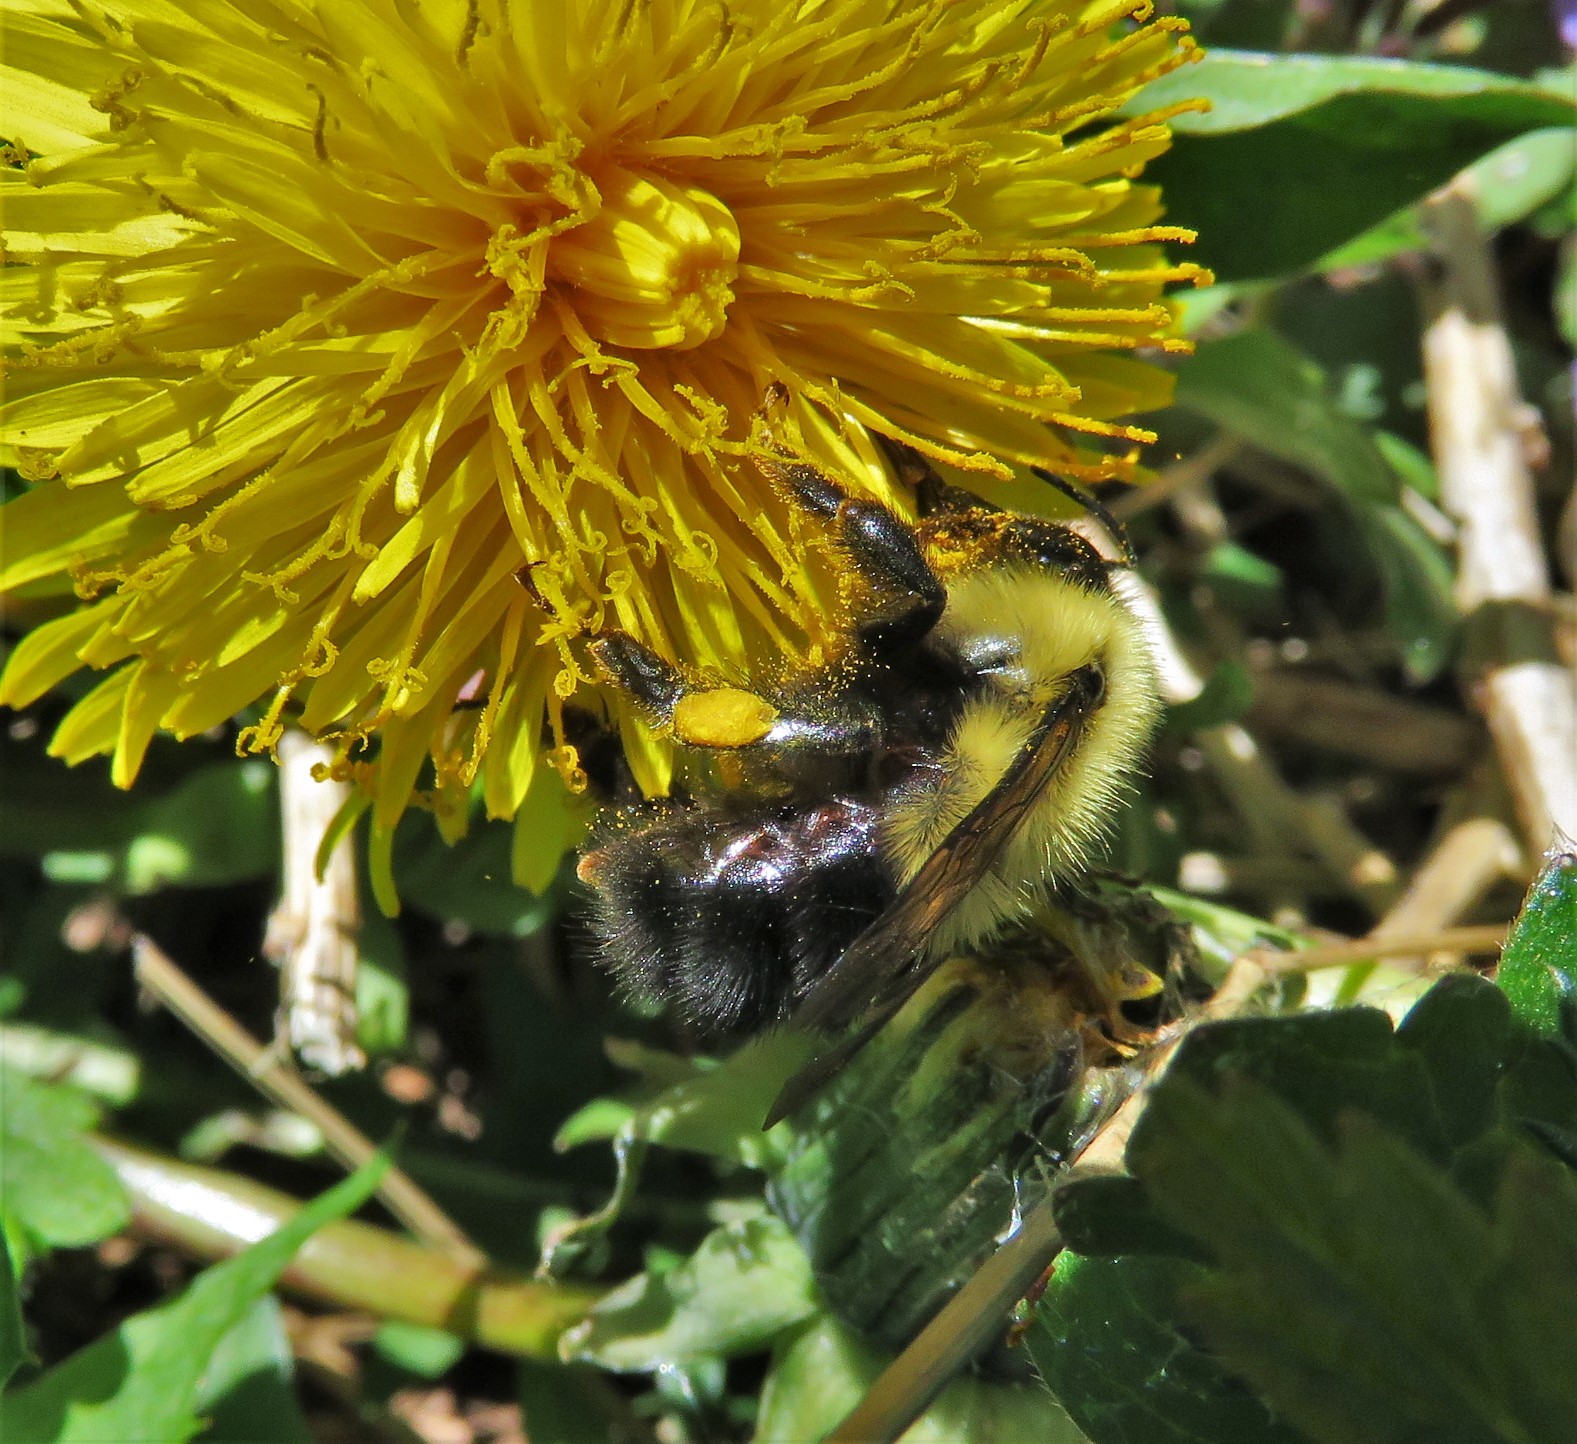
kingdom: Animalia
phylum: Arthropoda
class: Insecta
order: Hymenoptera
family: Apidae
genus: Pyrobombus
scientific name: Pyrobombus
